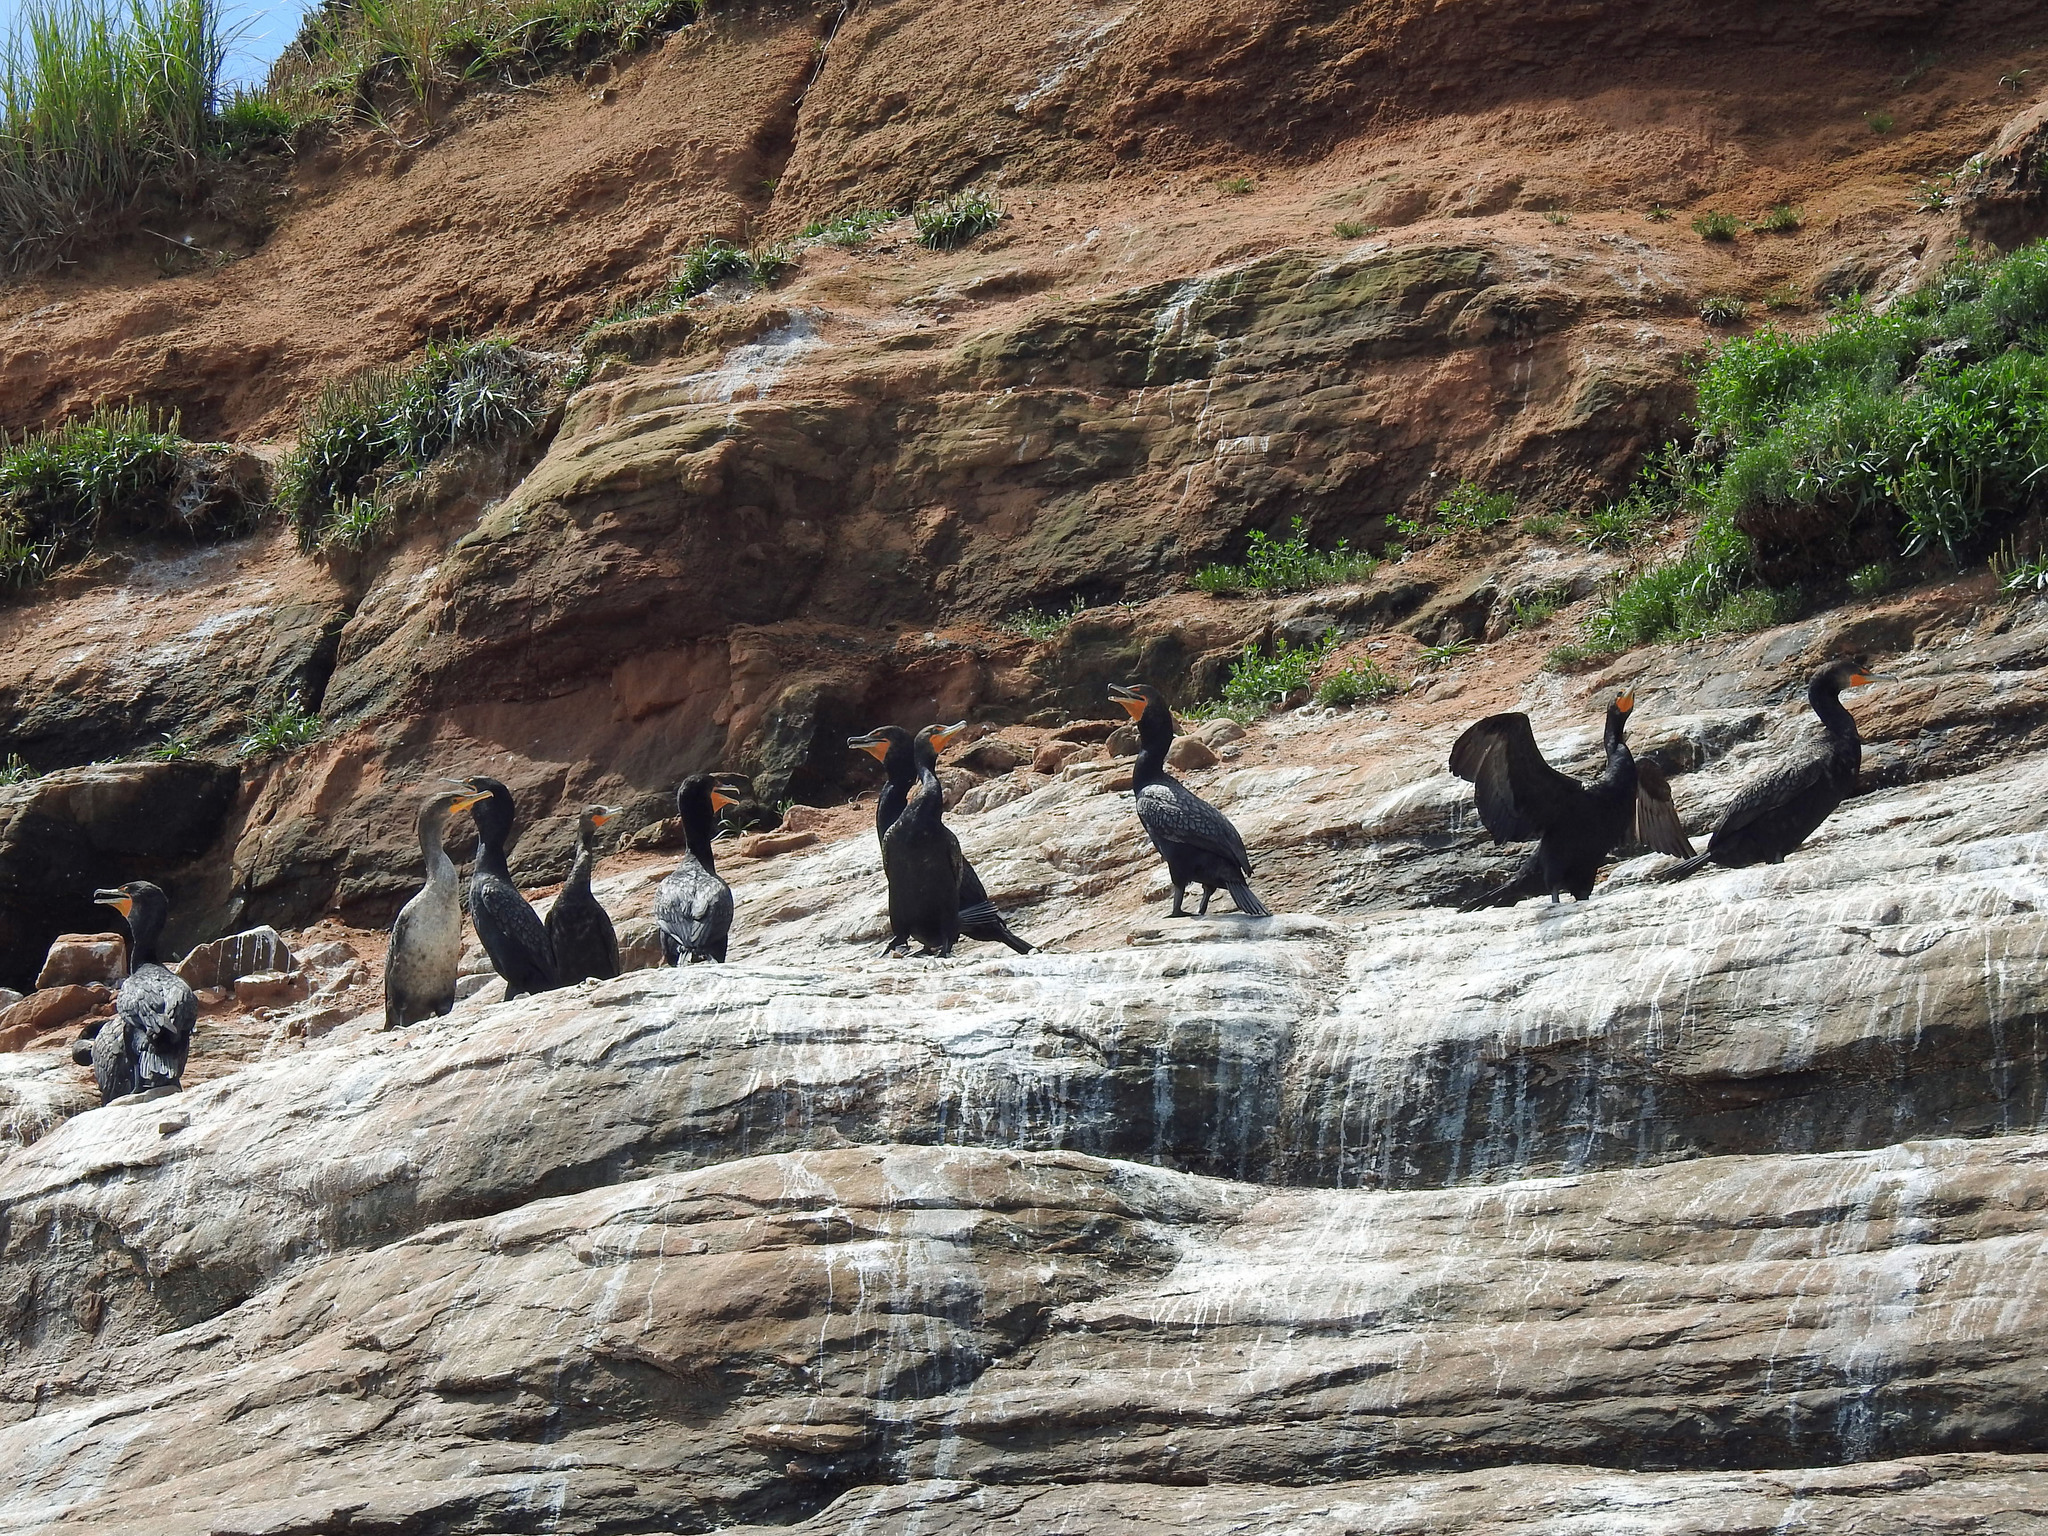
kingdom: Animalia
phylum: Chordata
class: Aves
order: Suliformes
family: Phalacrocoracidae
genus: Phalacrocorax
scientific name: Phalacrocorax auritus
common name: Double-crested cormorant
